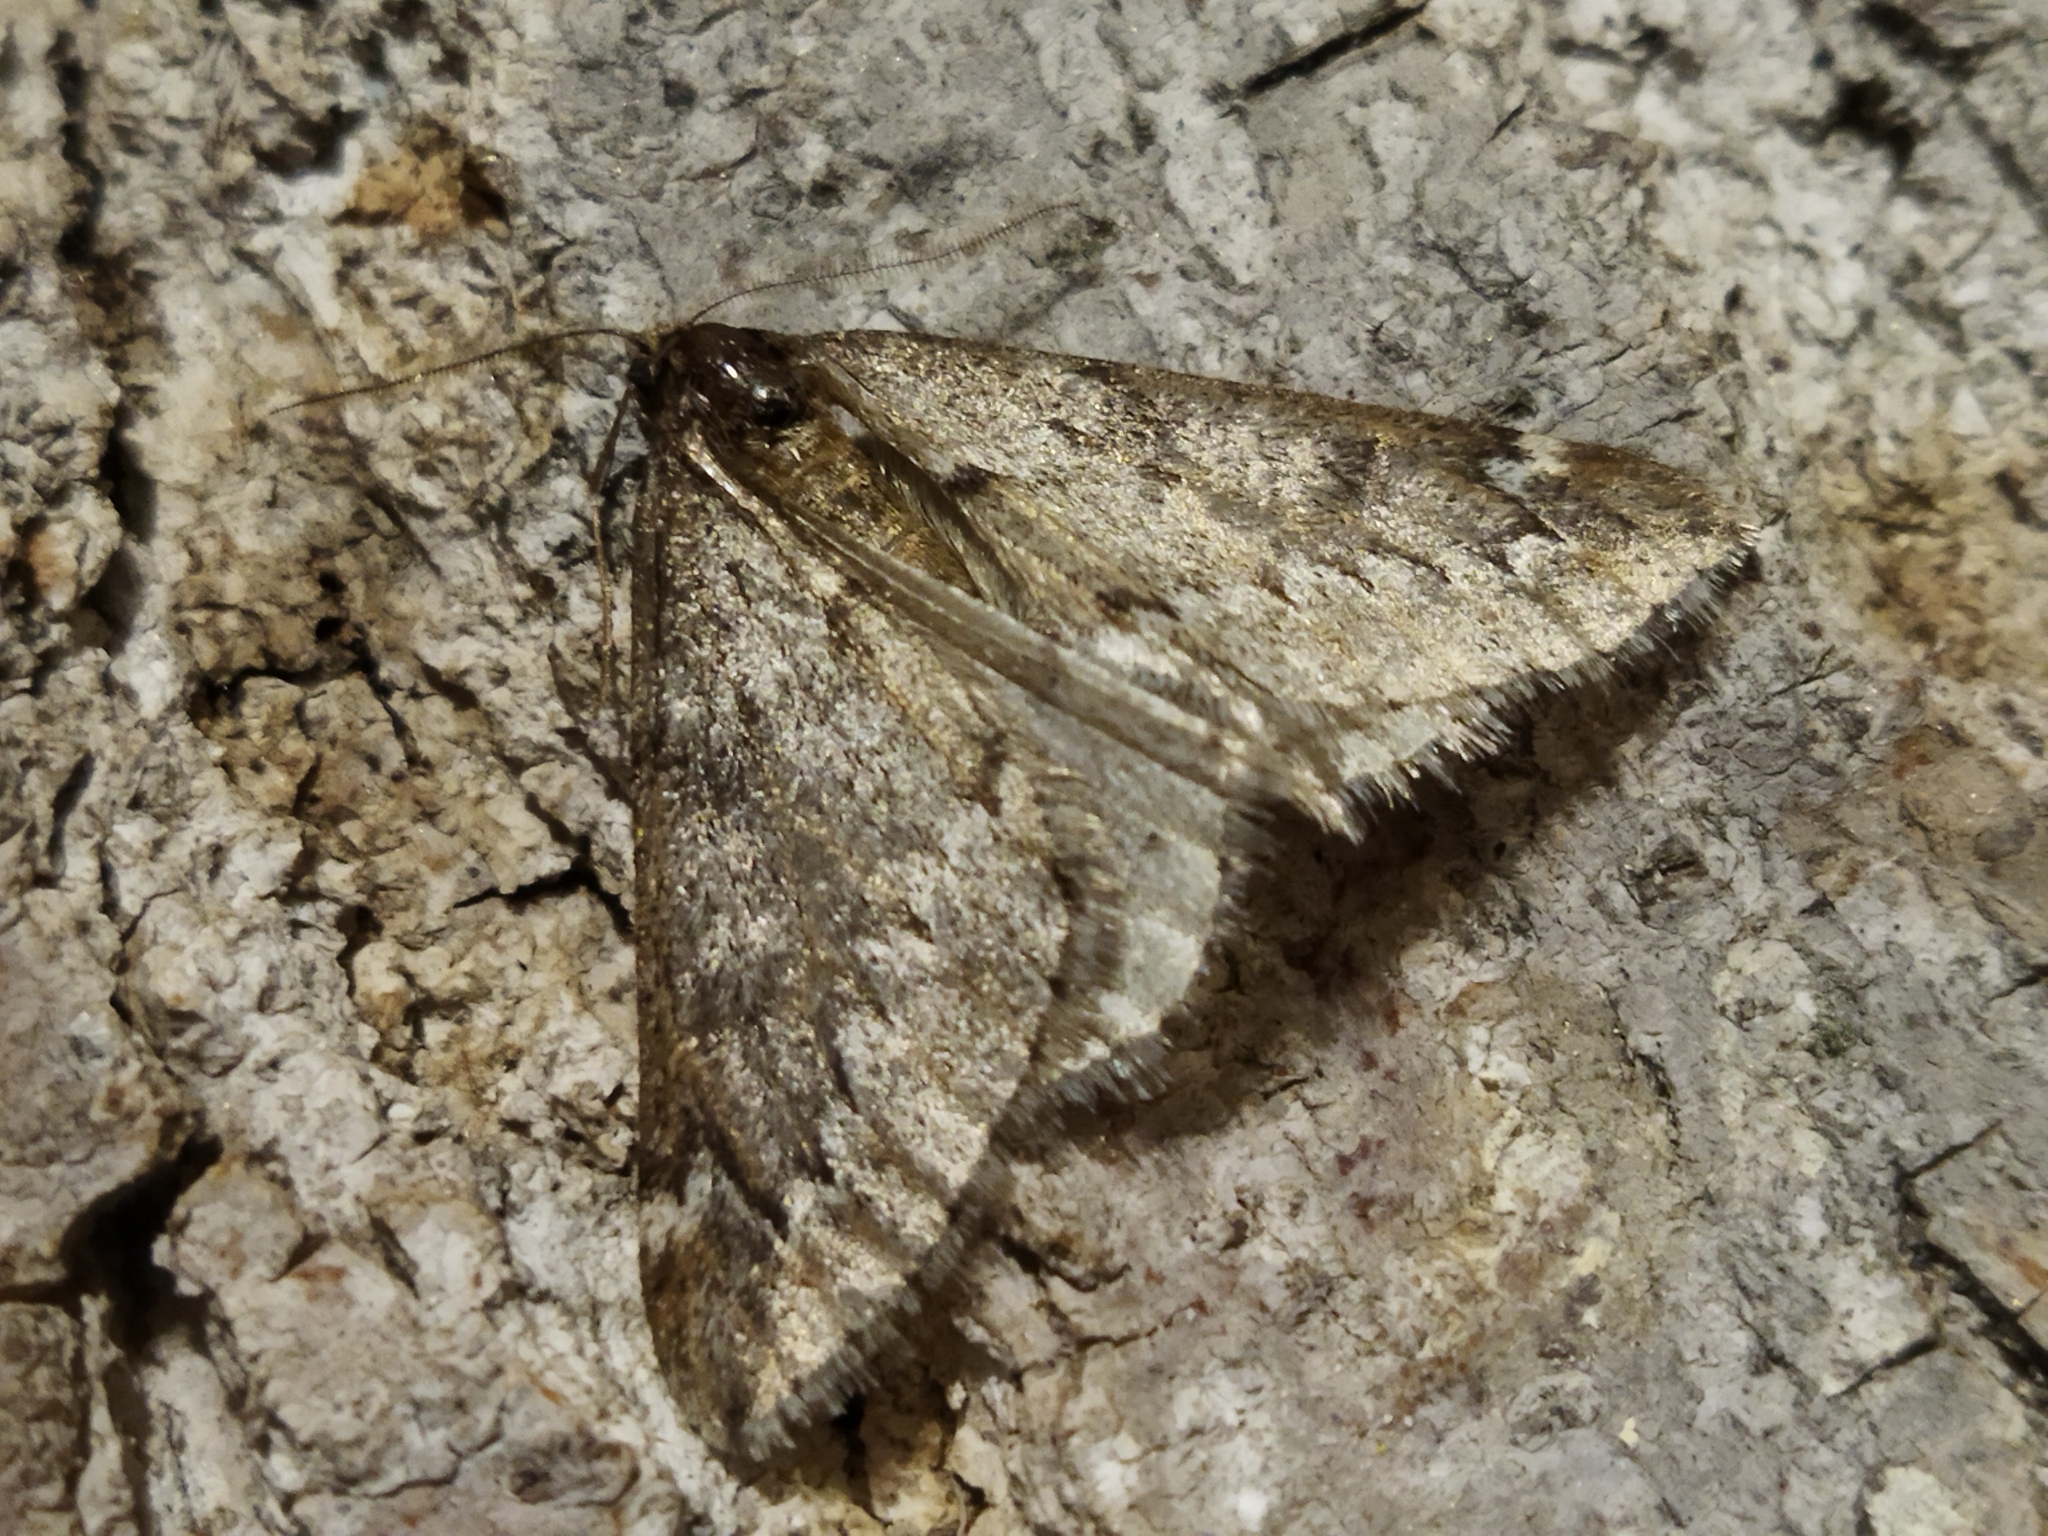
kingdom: Animalia
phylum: Arthropoda
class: Insecta
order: Lepidoptera
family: Geometridae
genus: Alsophila
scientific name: Alsophila aescularia
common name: March moth
